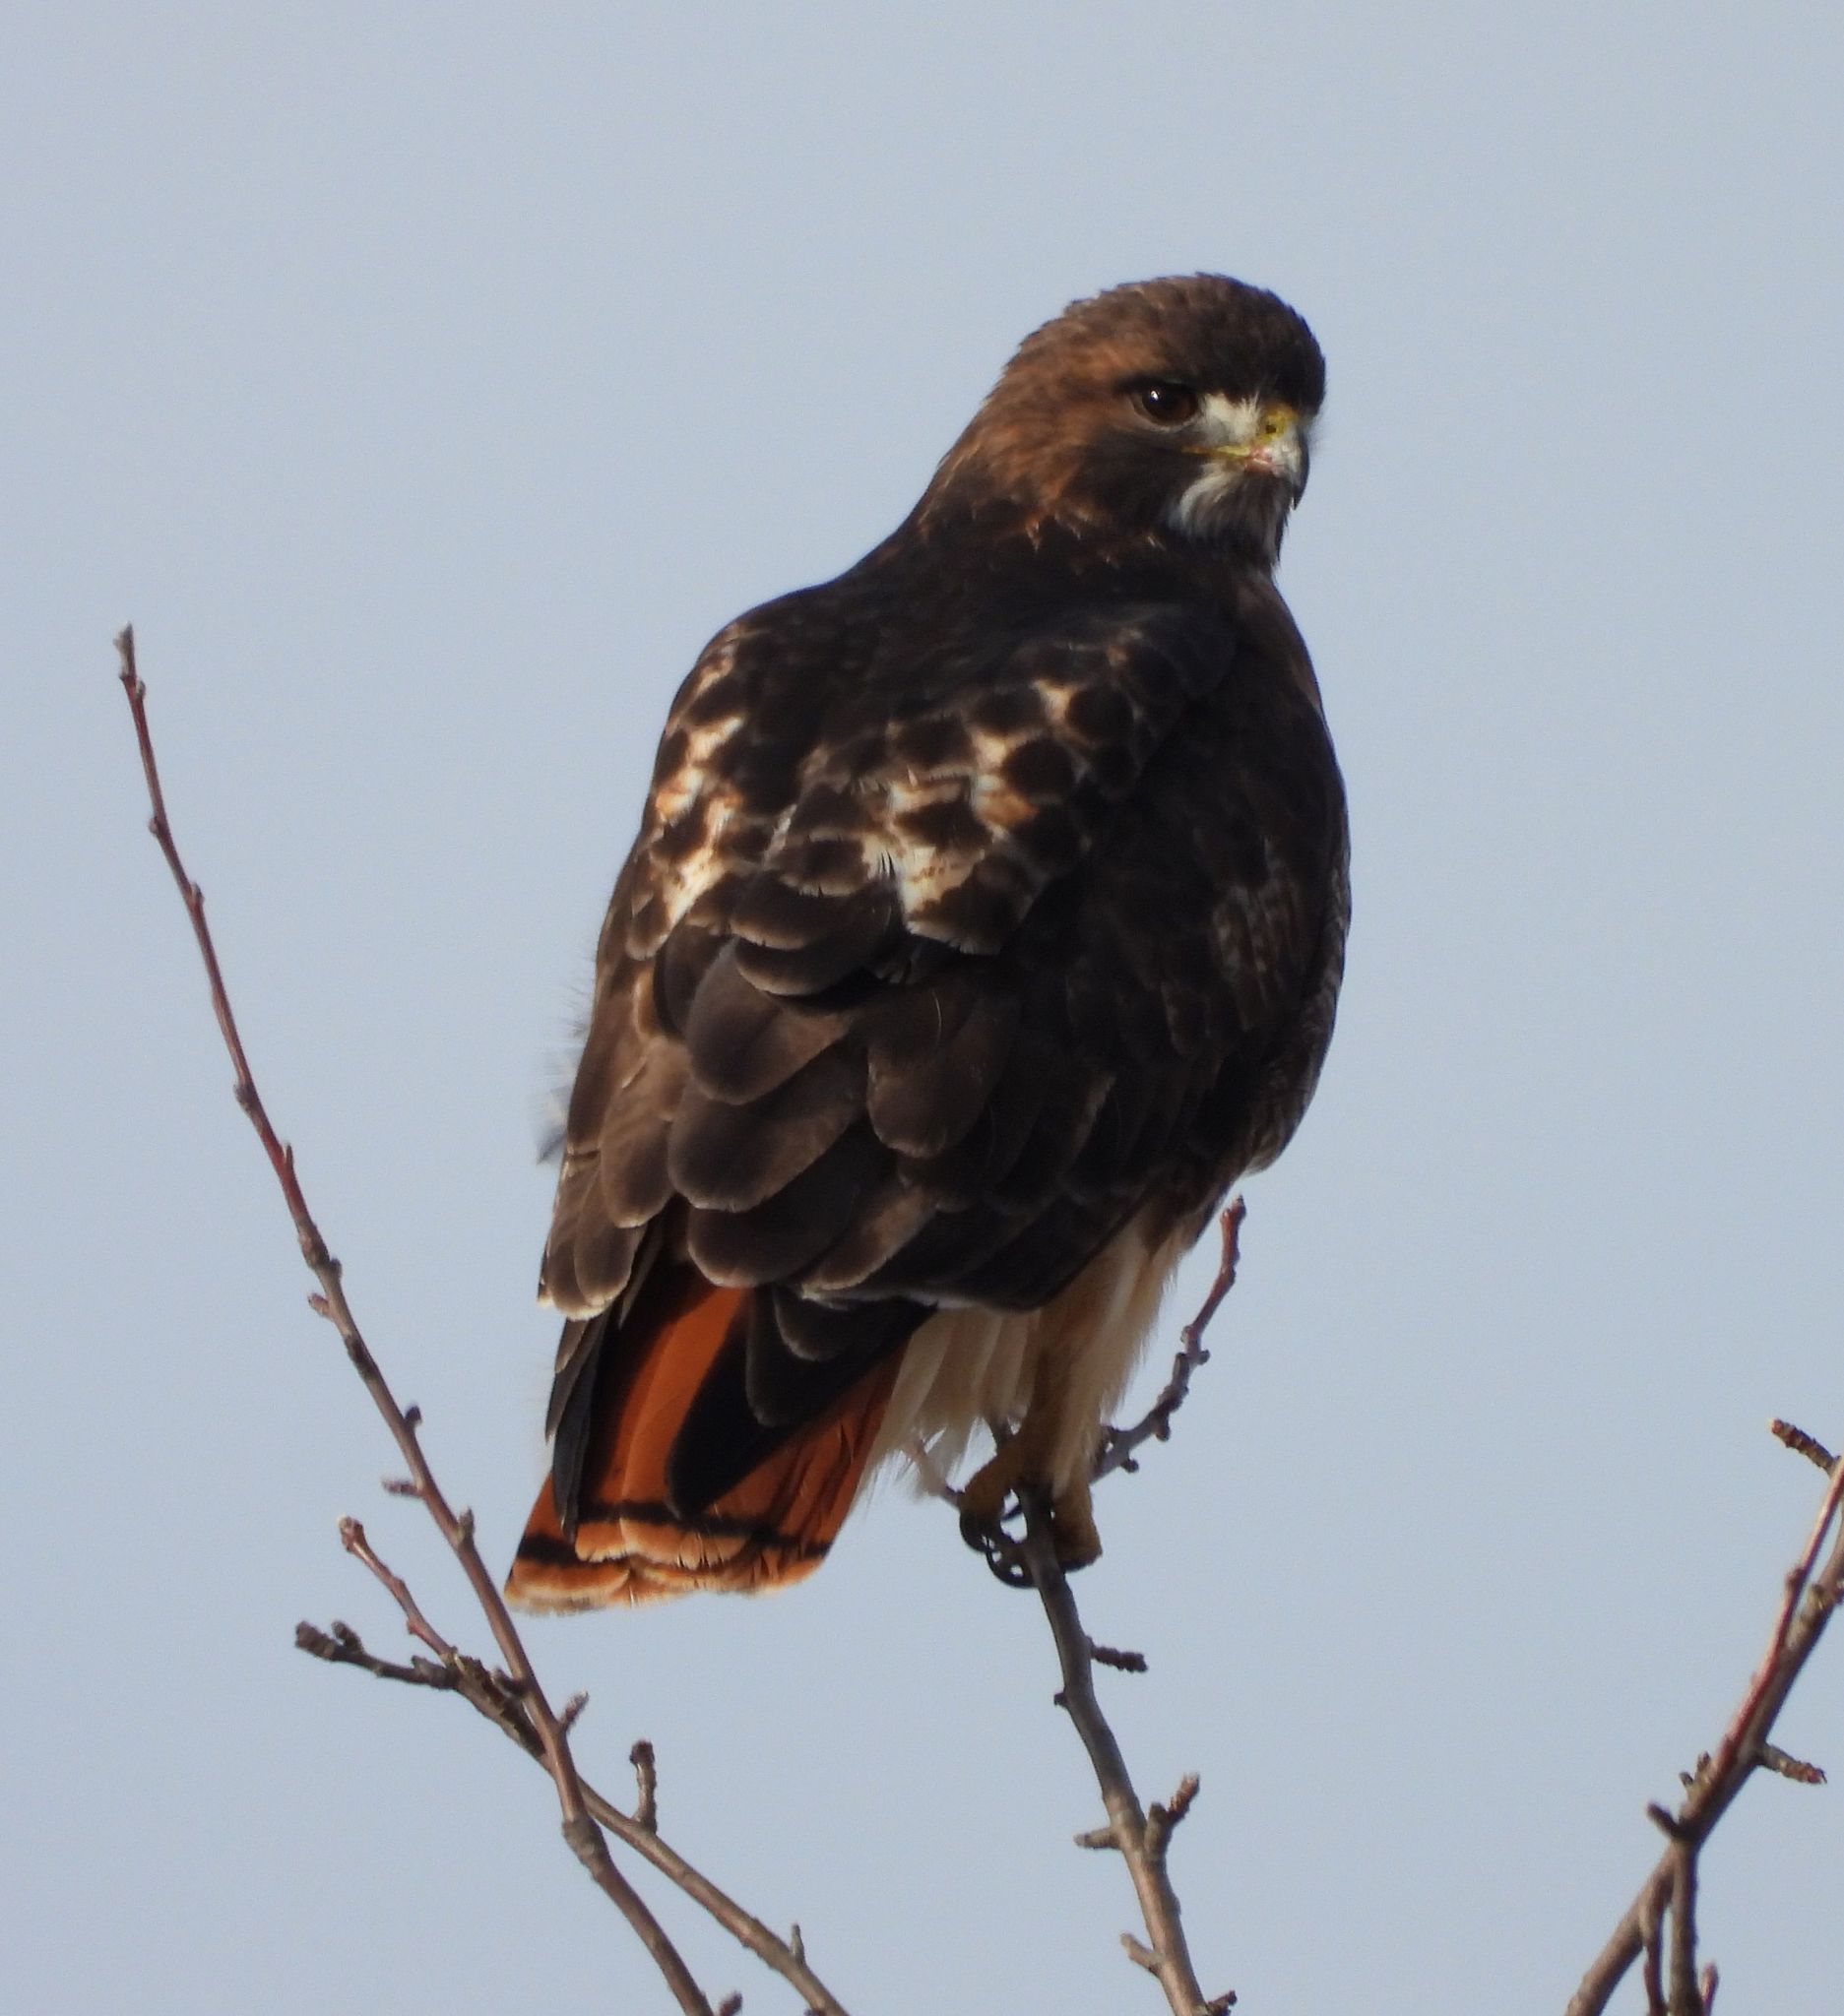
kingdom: Animalia
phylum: Chordata
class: Aves
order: Accipitriformes
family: Accipitridae
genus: Buteo
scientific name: Buteo jamaicensis
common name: Red-tailed hawk
